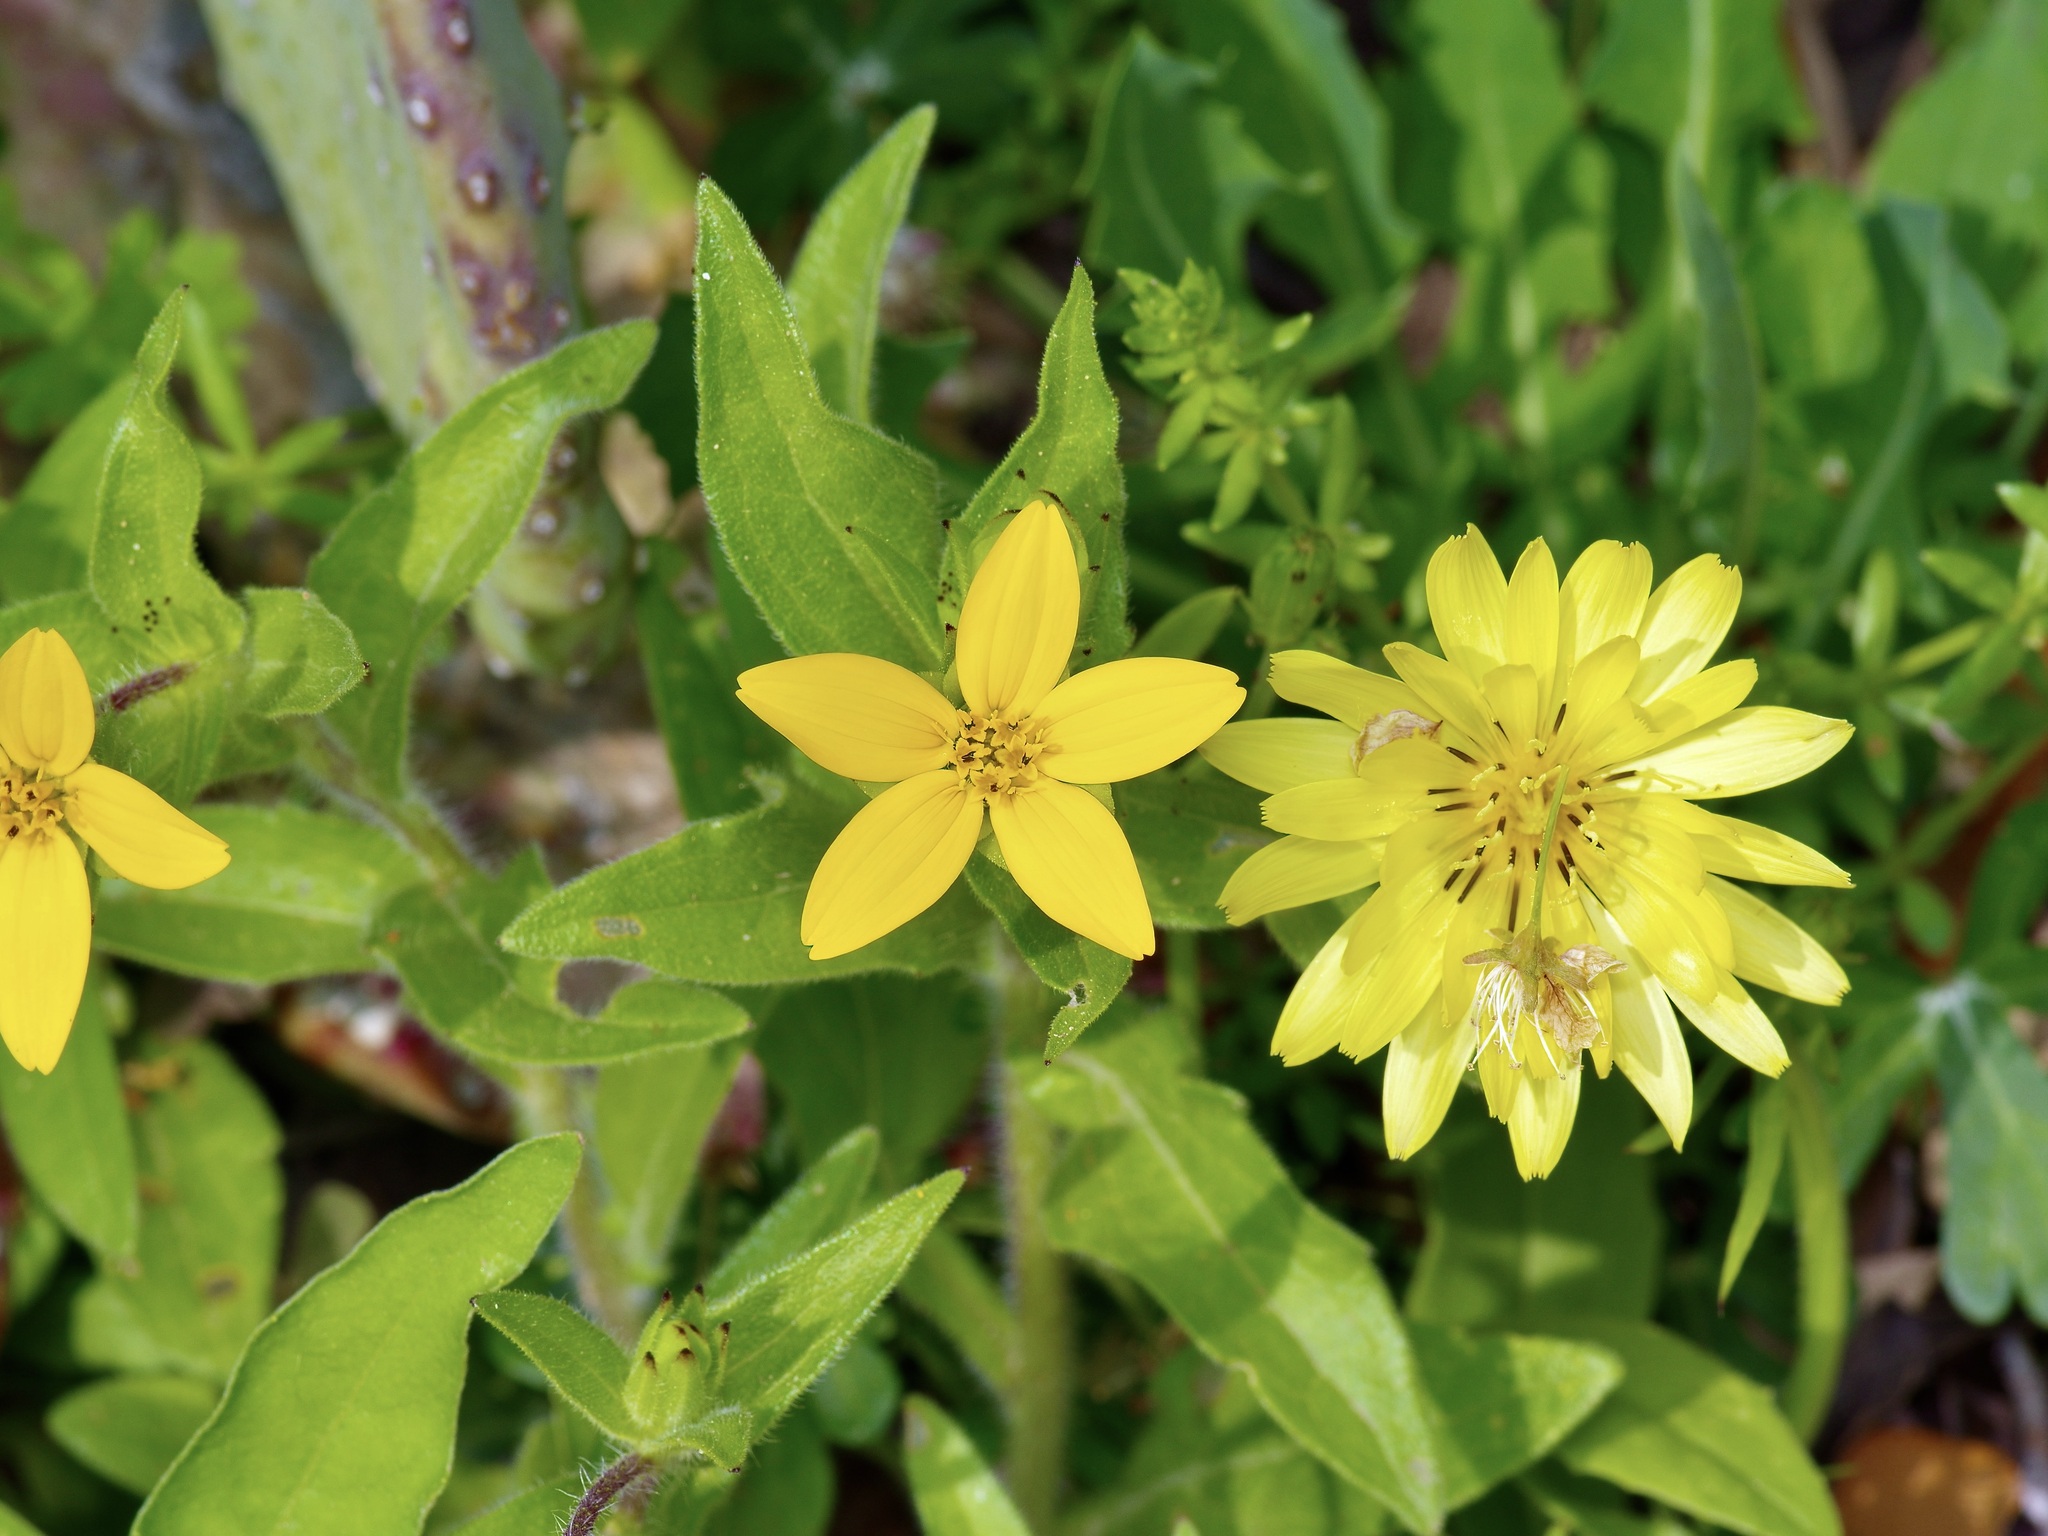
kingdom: Plantae
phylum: Tracheophyta
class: Magnoliopsida
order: Asterales
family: Asteraceae
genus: Lindheimera
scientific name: Lindheimera texana
